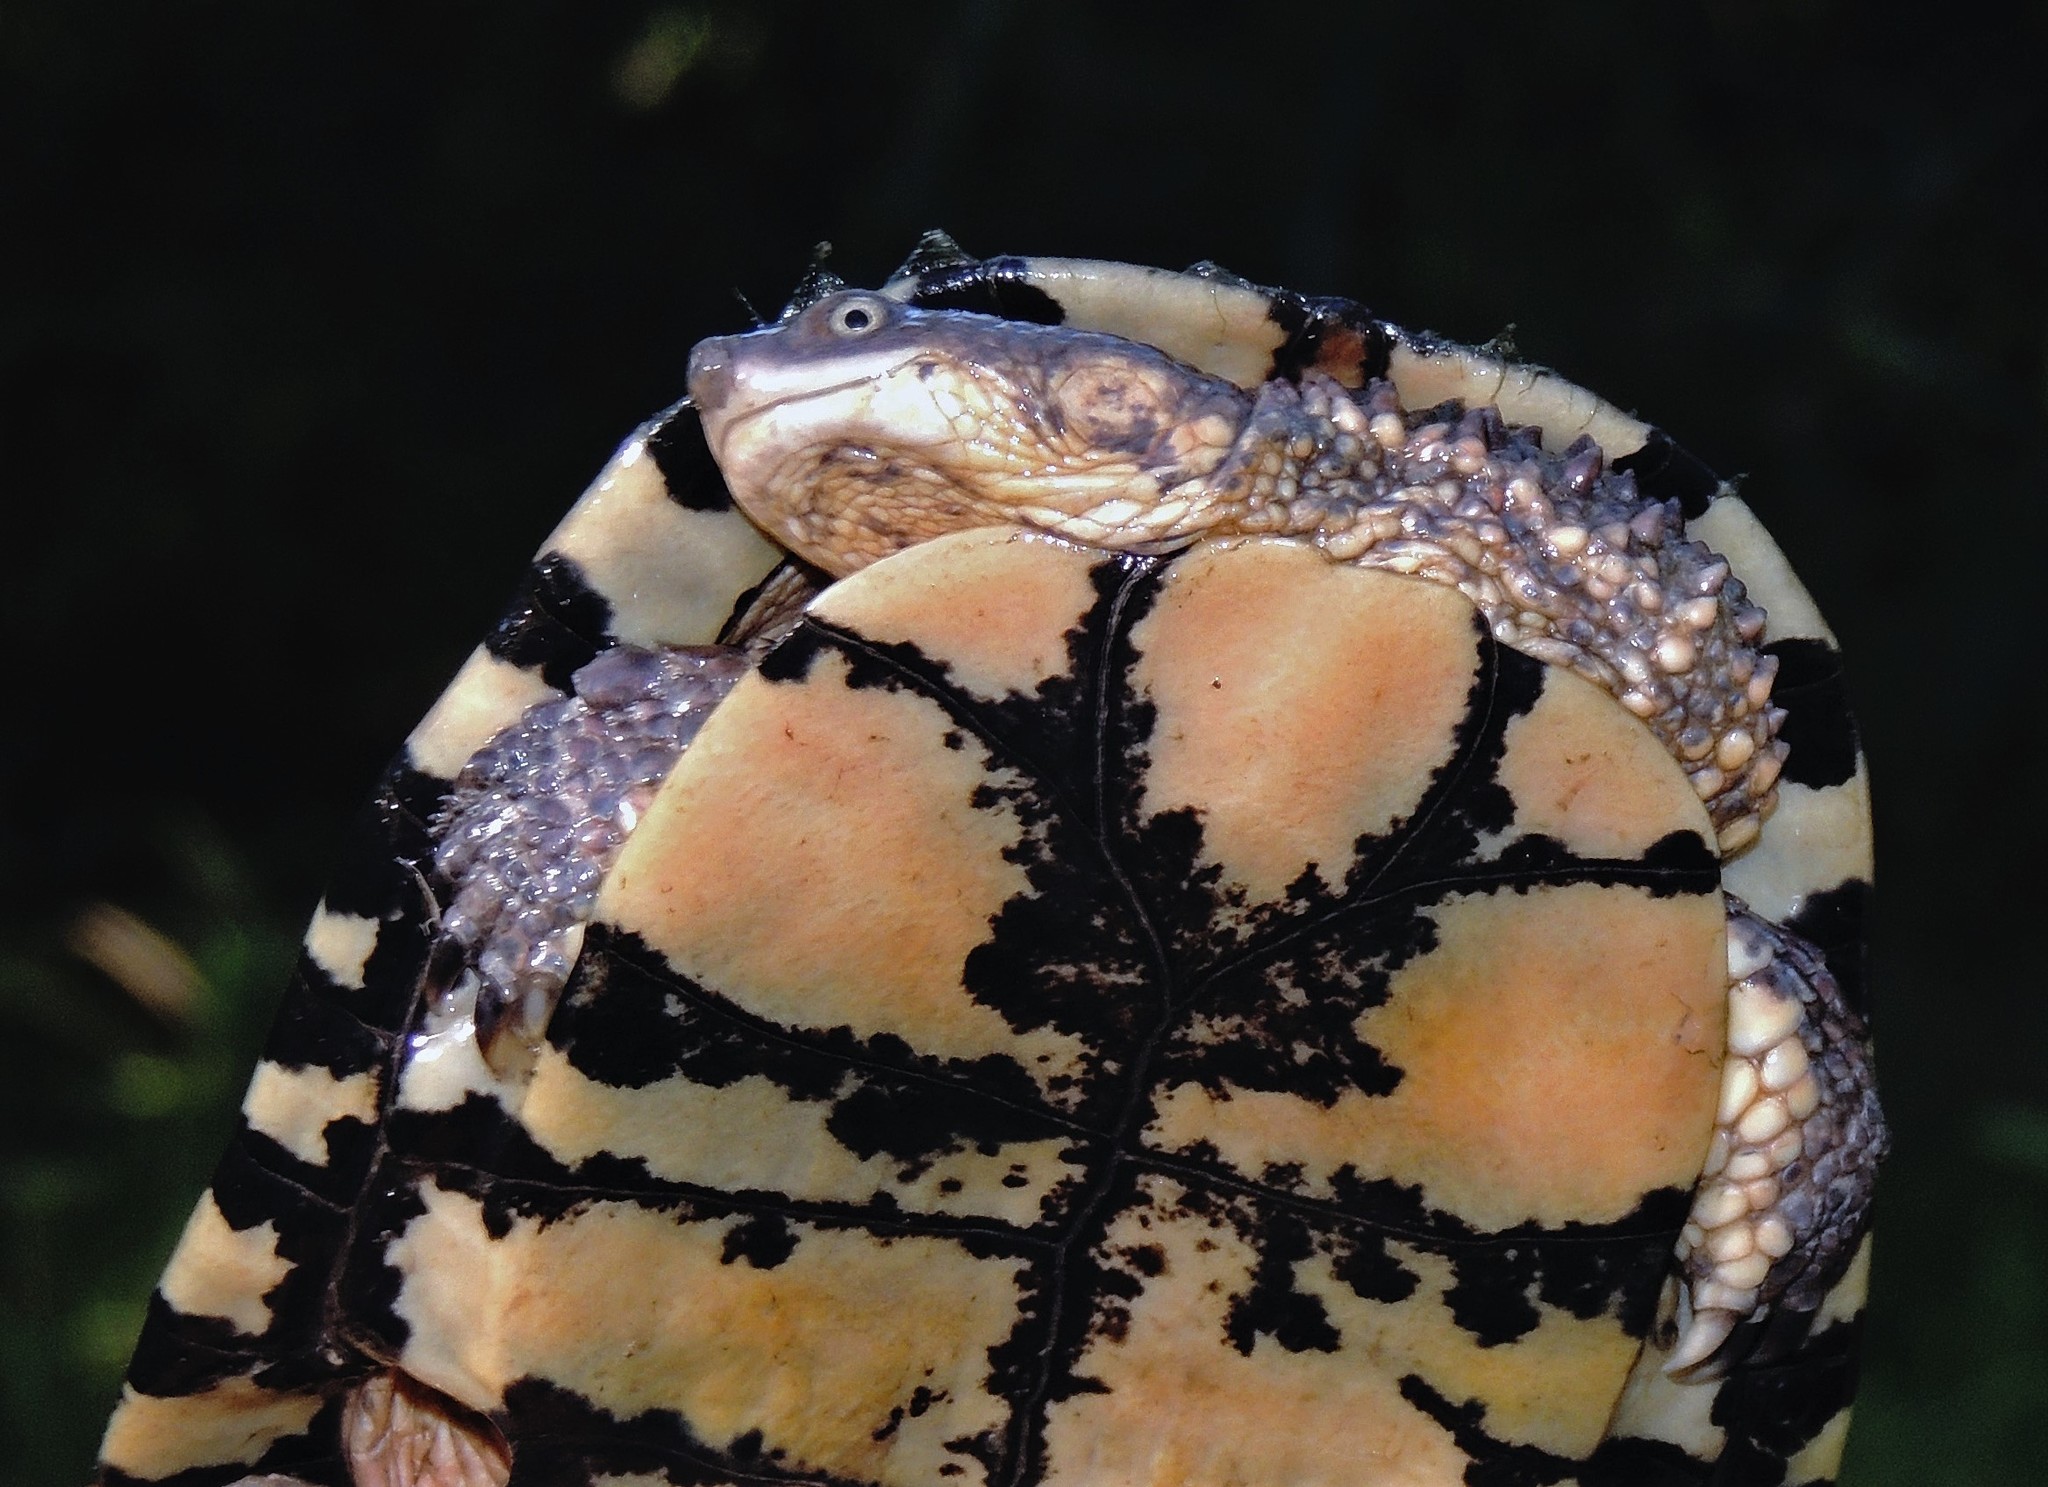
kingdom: Animalia
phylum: Chordata
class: Testudines
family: Chelidae
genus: Acanthochelys
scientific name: Acanthochelys pallidipectoris
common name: Chaco side-necked turtle
